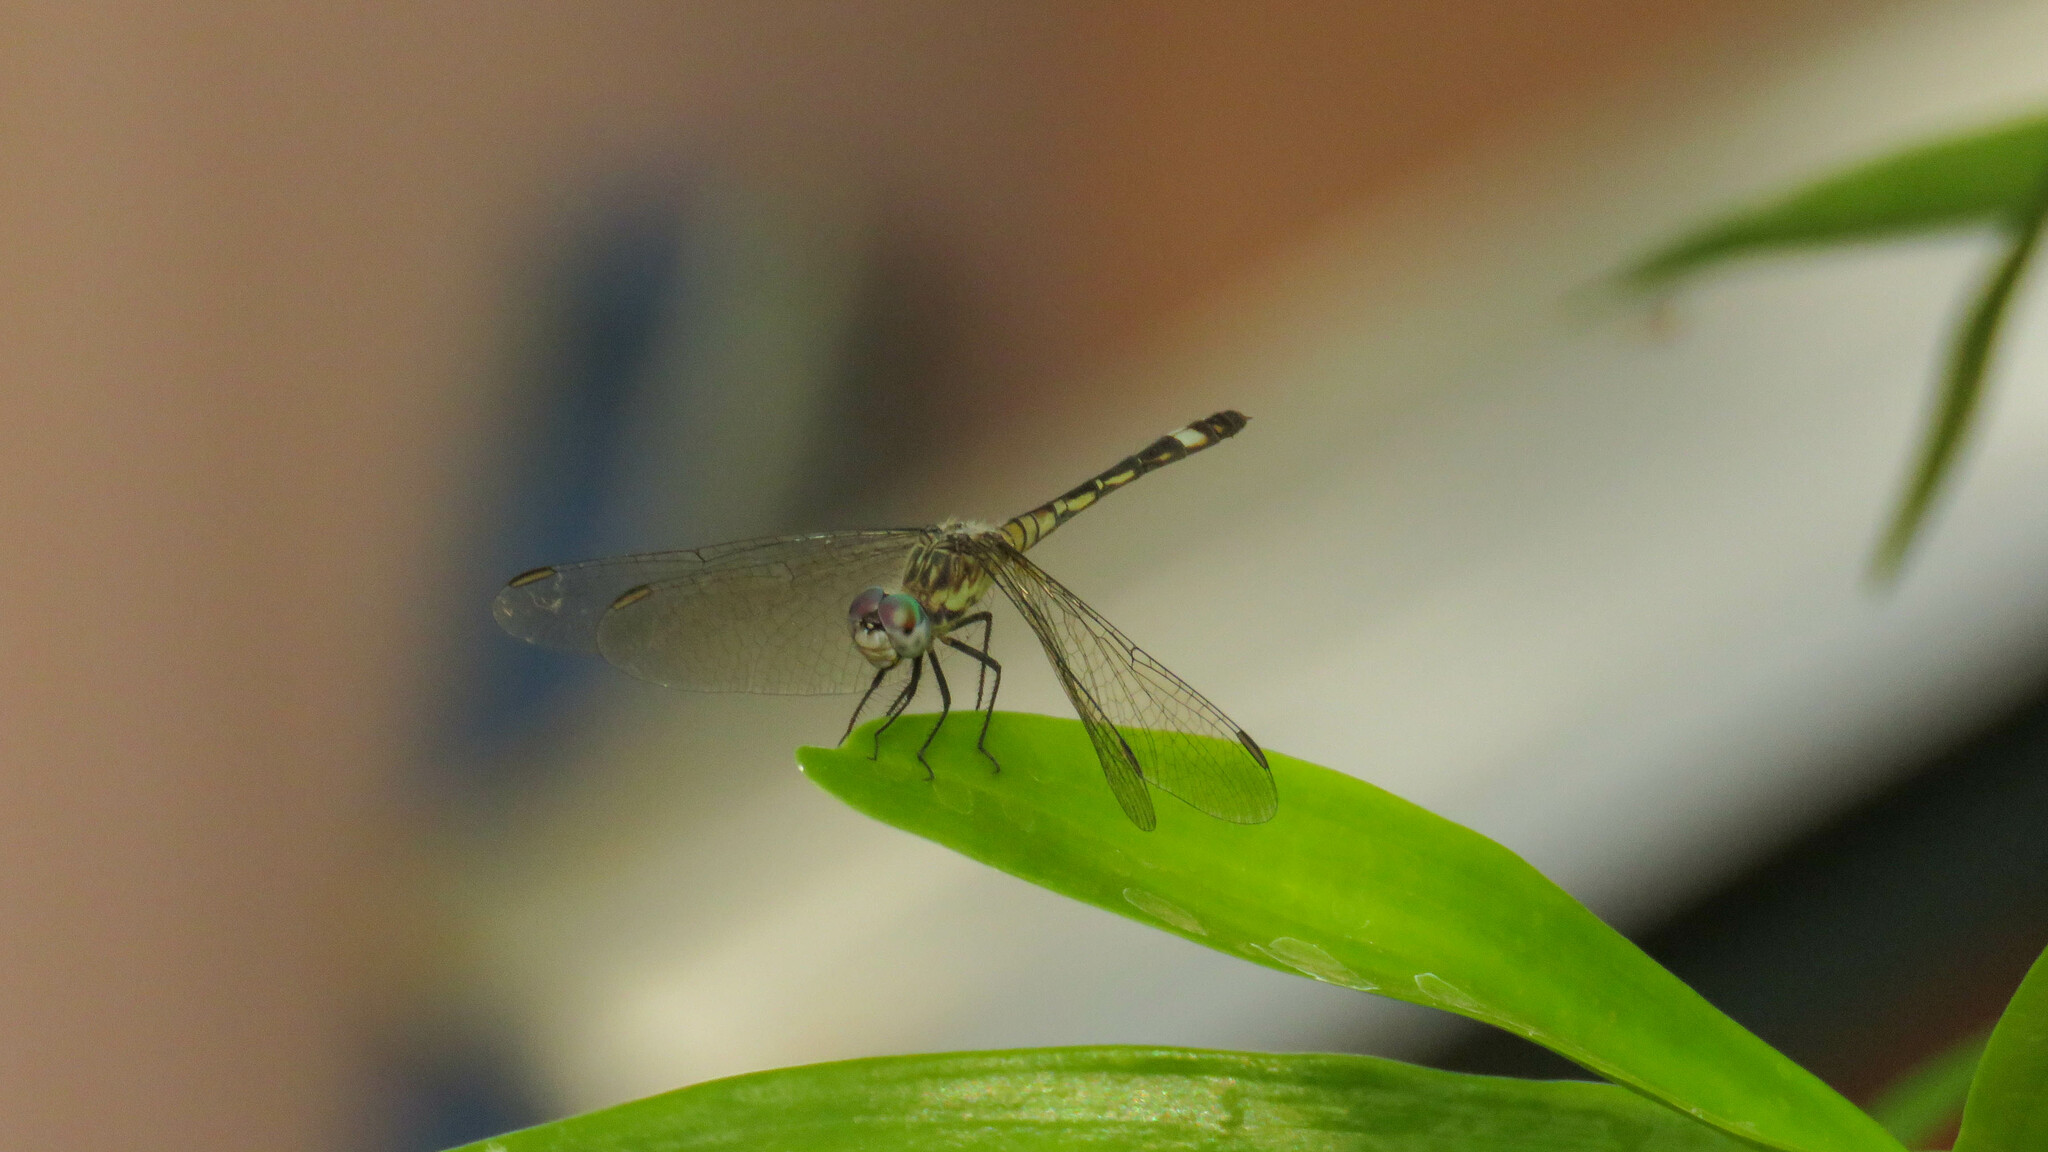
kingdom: Animalia
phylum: Arthropoda
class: Insecta
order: Odonata
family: Libellulidae
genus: Micrathyria
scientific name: Micrathyria longifasciata
